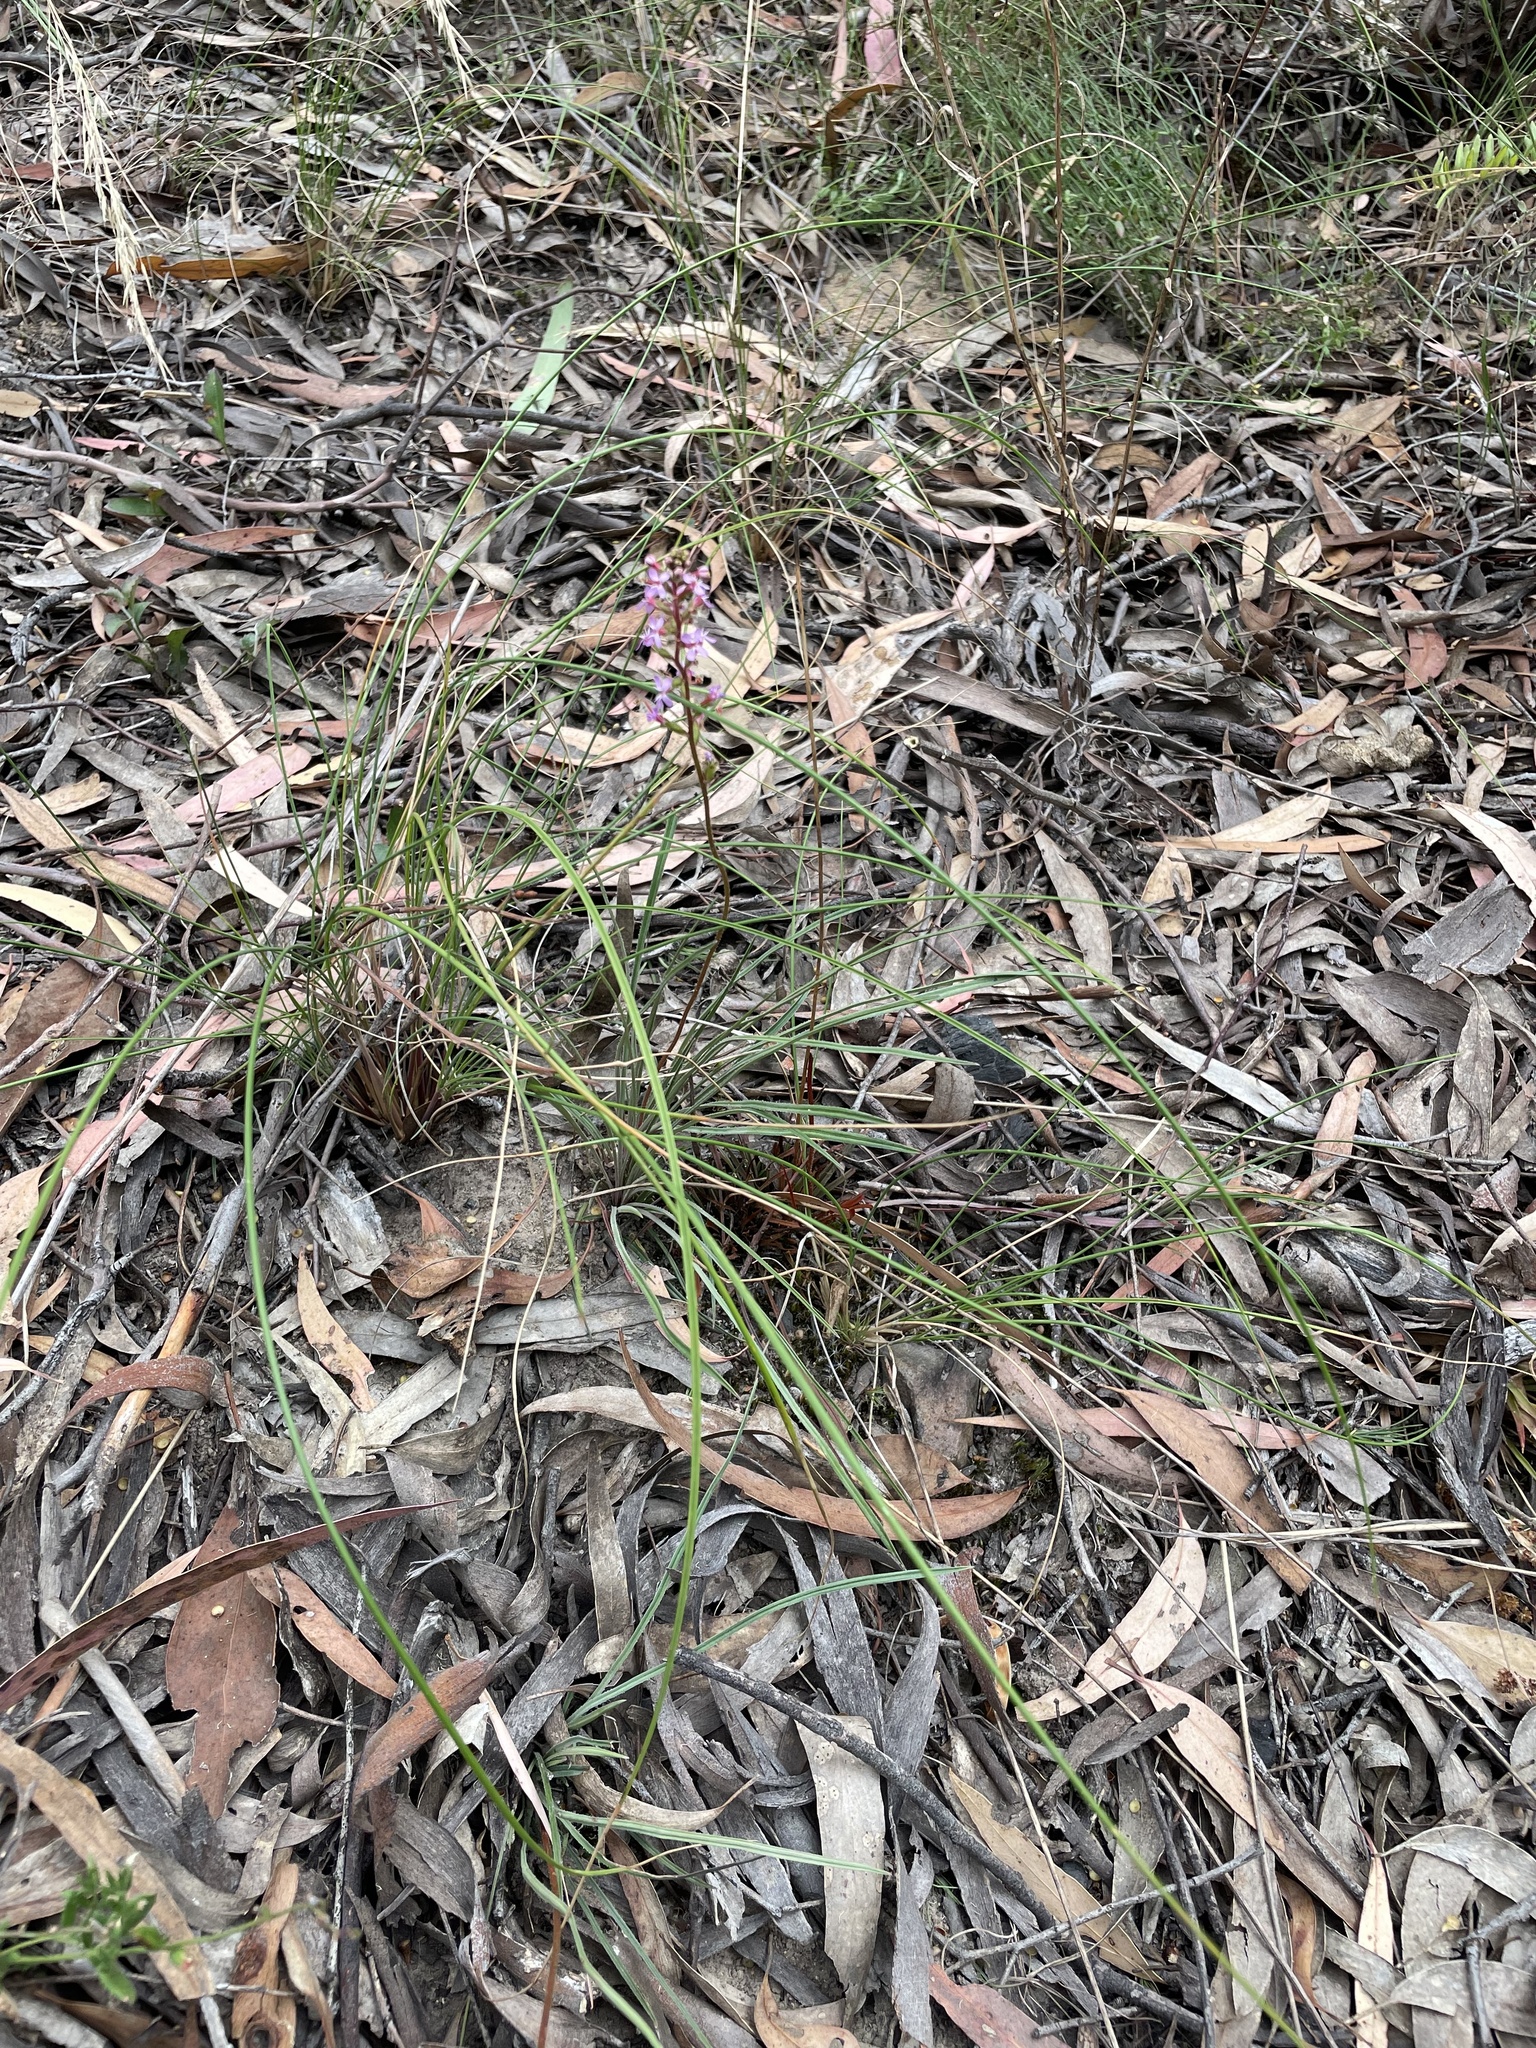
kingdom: Plantae
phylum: Tracheophyta
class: Magnoliopsida
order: Asterales
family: Stylidiaceae
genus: Stylidium
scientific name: Stylidium graminifolium
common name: Grass triggerplant
